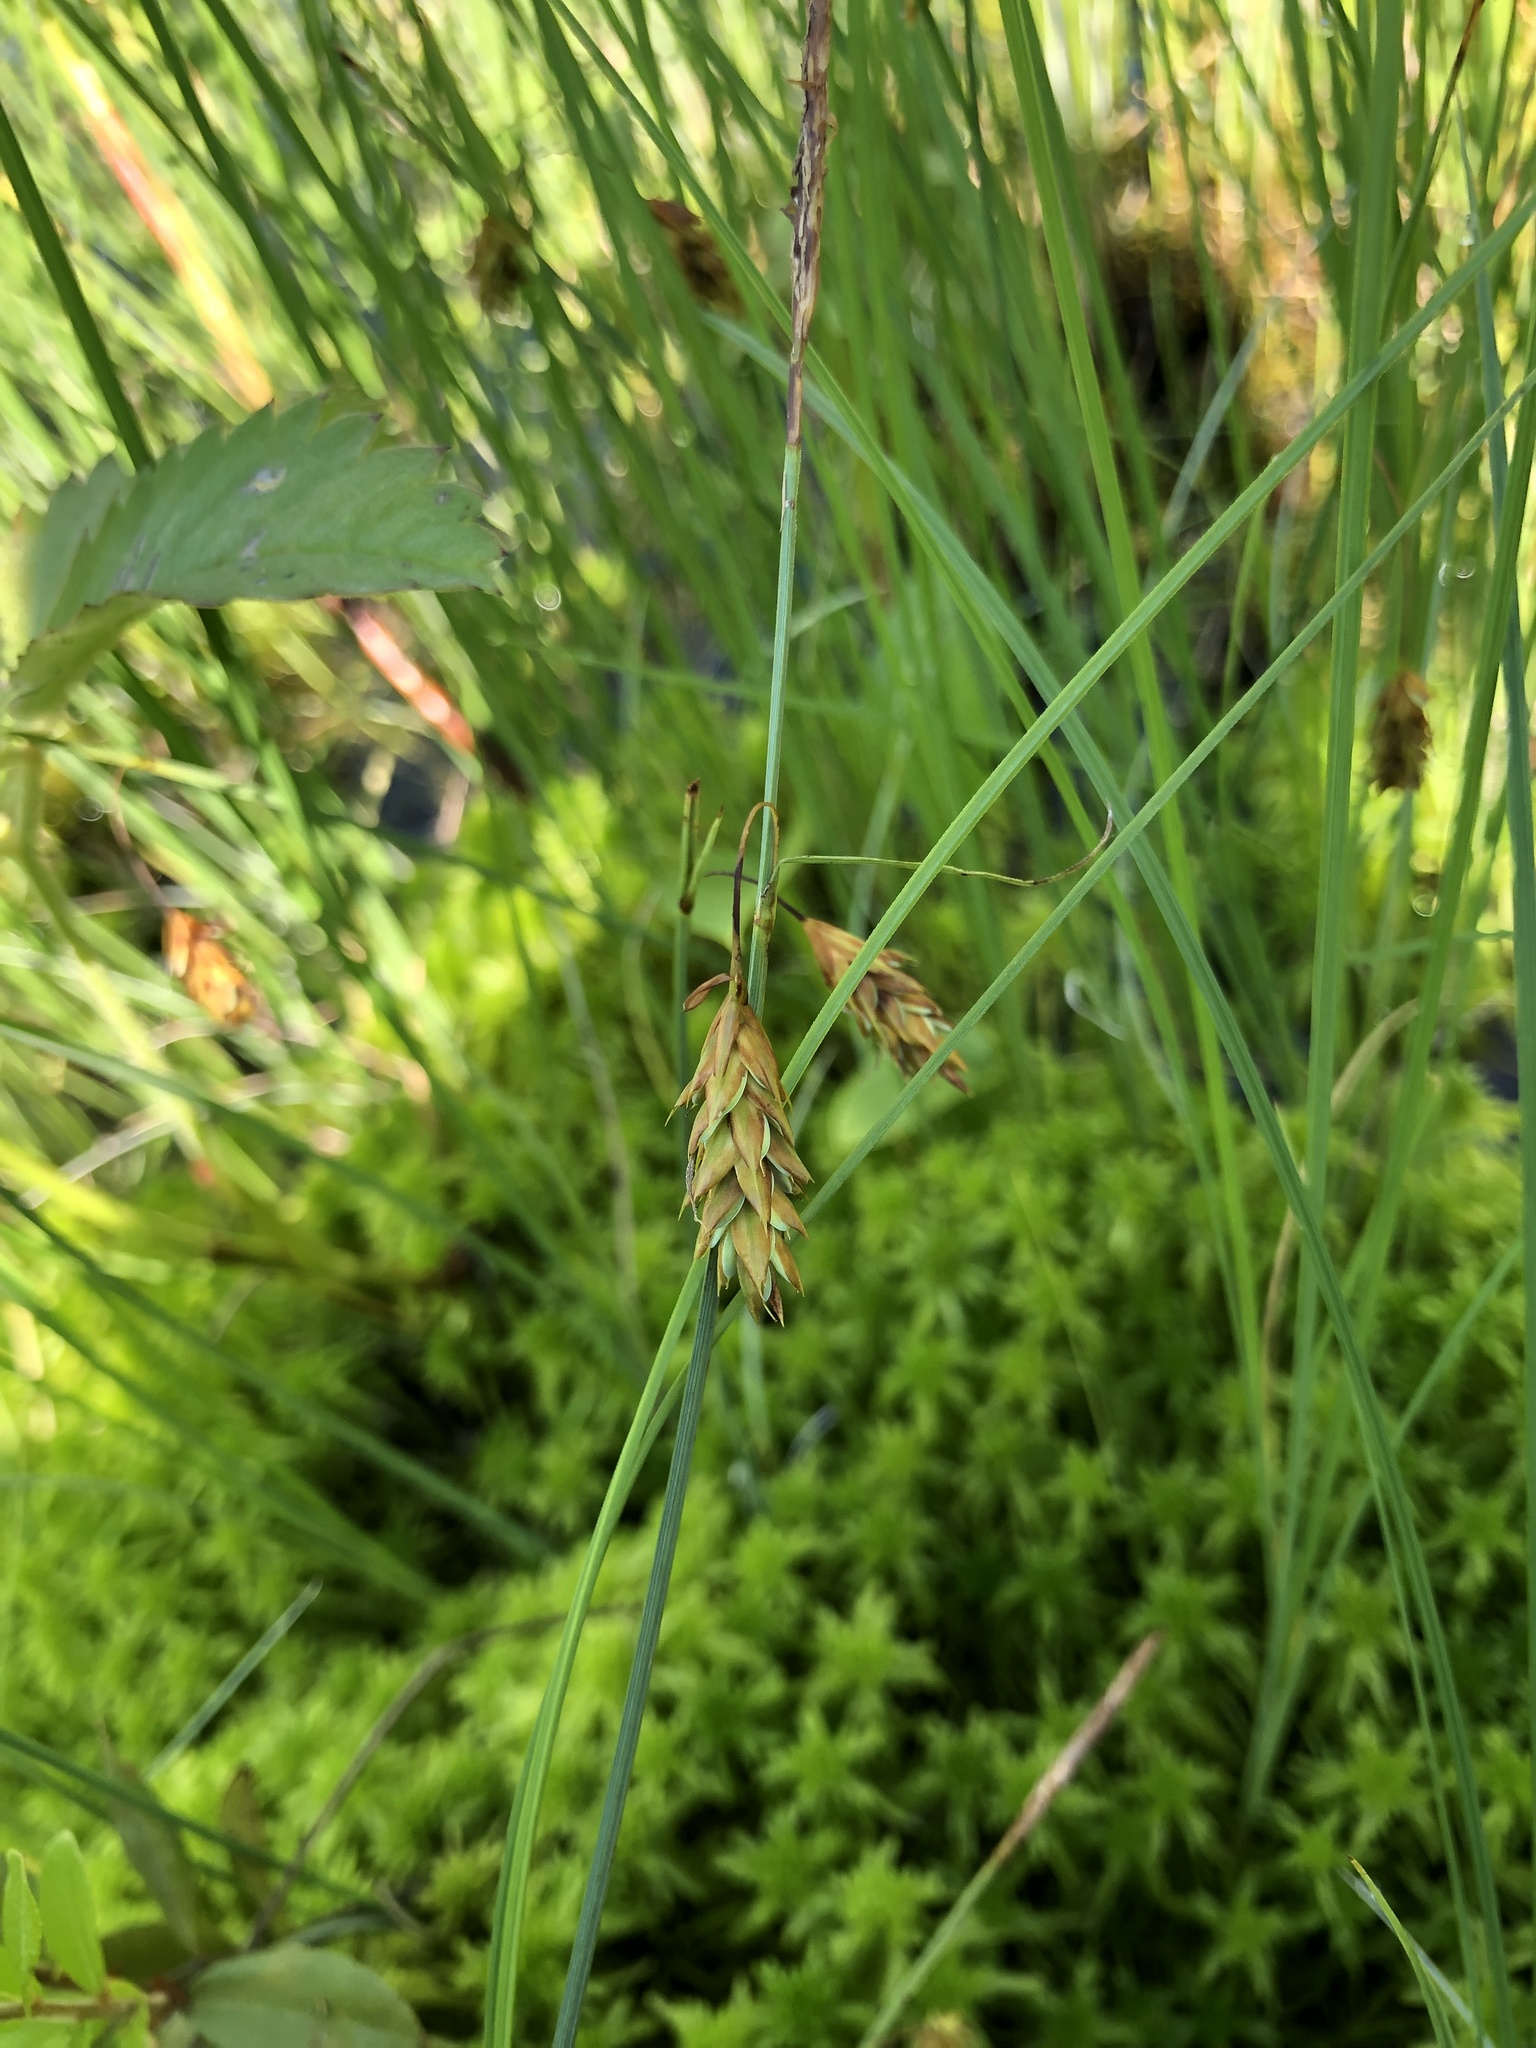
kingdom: Plantae
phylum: Tracheophyta
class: Liliopsida
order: Poales
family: Cyperaceae
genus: Carex
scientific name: Carex limosa
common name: Bog sedge
